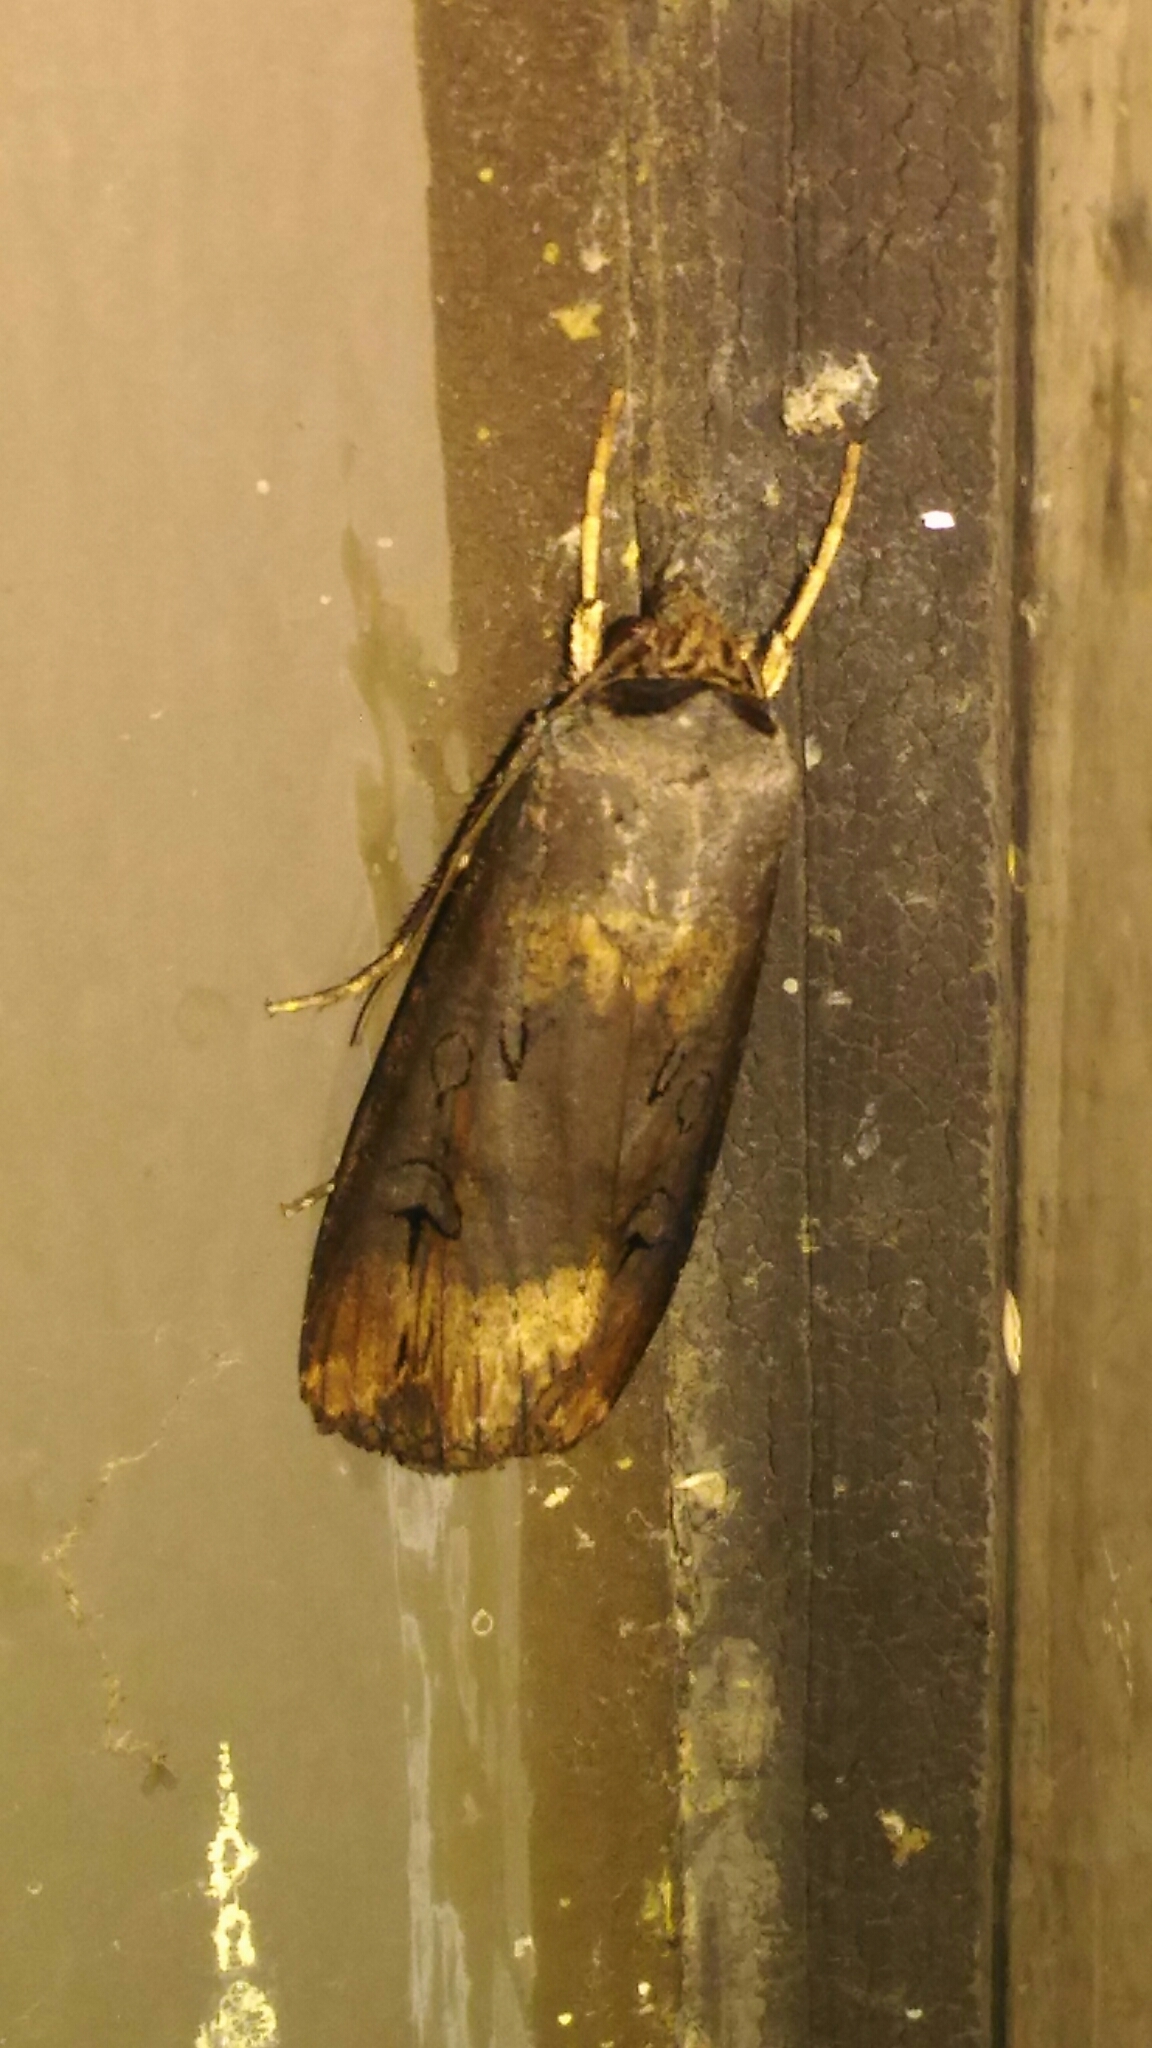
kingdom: Animalia
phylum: Arthropoda
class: Insecta
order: Lepidoptera
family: Noctuidae
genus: Agrotis
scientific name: Agrotis ipsilon
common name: Dark sword-grass
